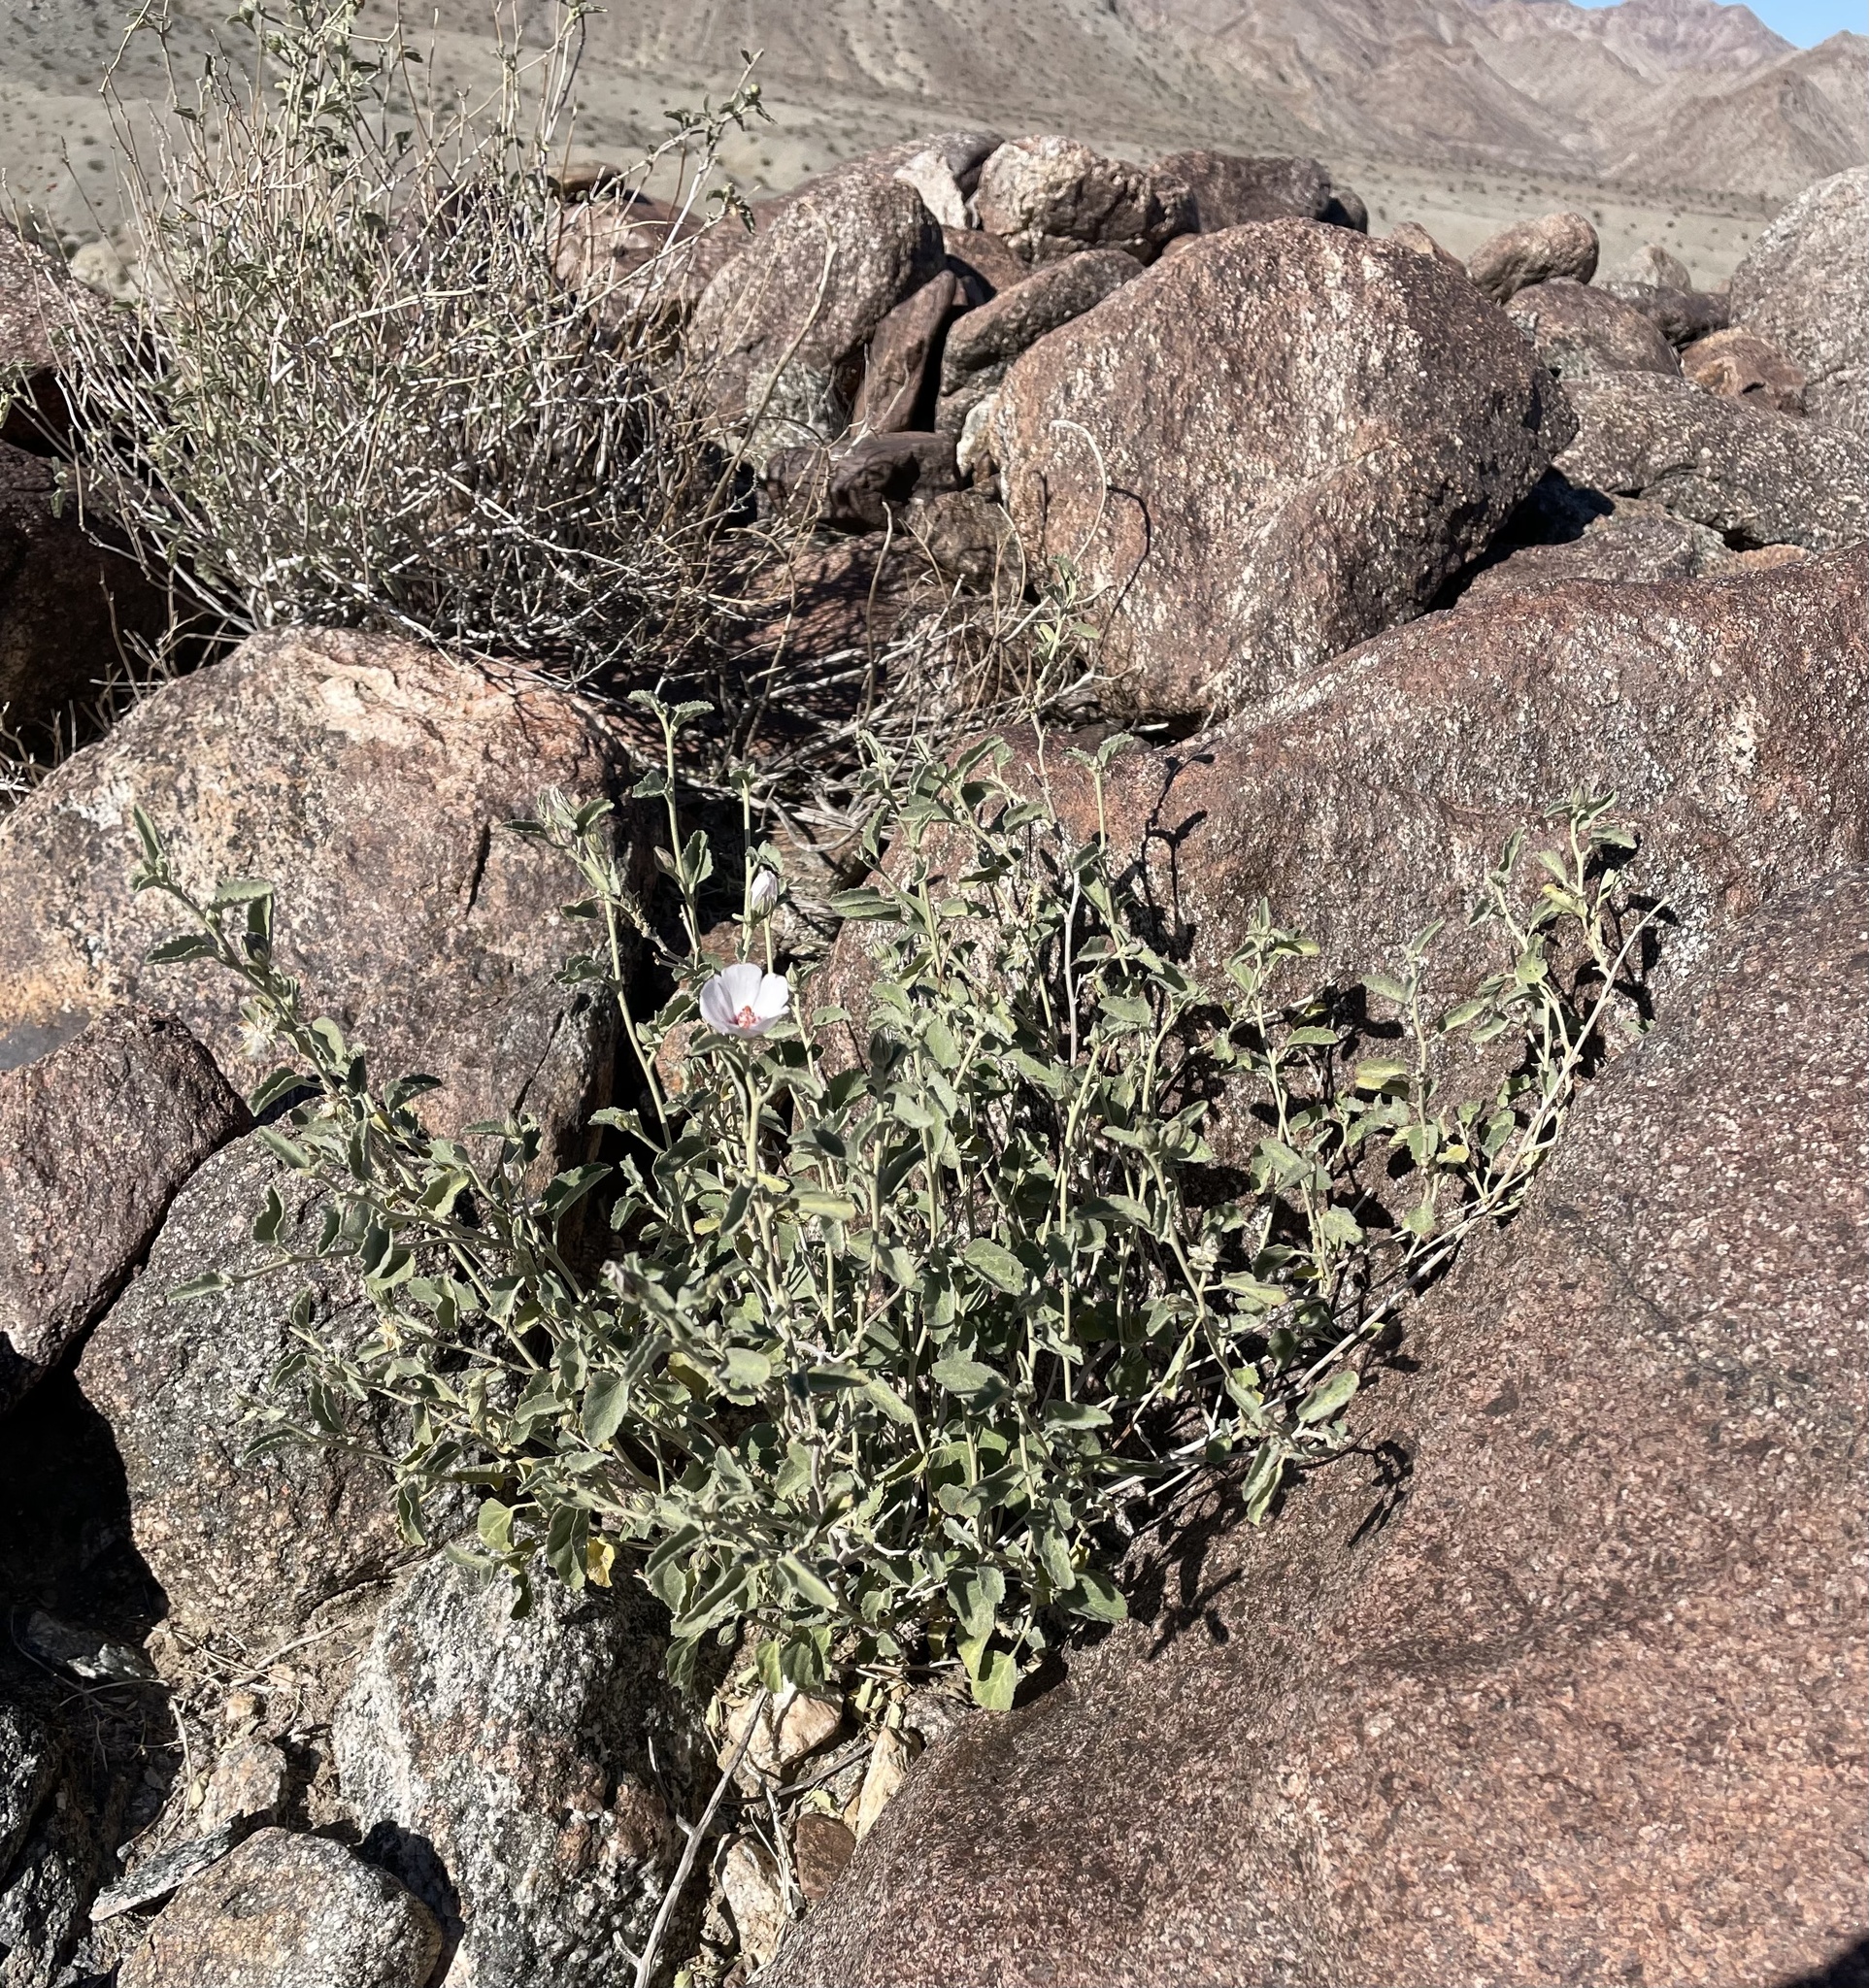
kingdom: Plantae
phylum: Tracheophyta
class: Magnoliopsida
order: Malvales
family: Malvaceae
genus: Hibiscus
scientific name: Hibiscus denudatus
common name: Paleface
